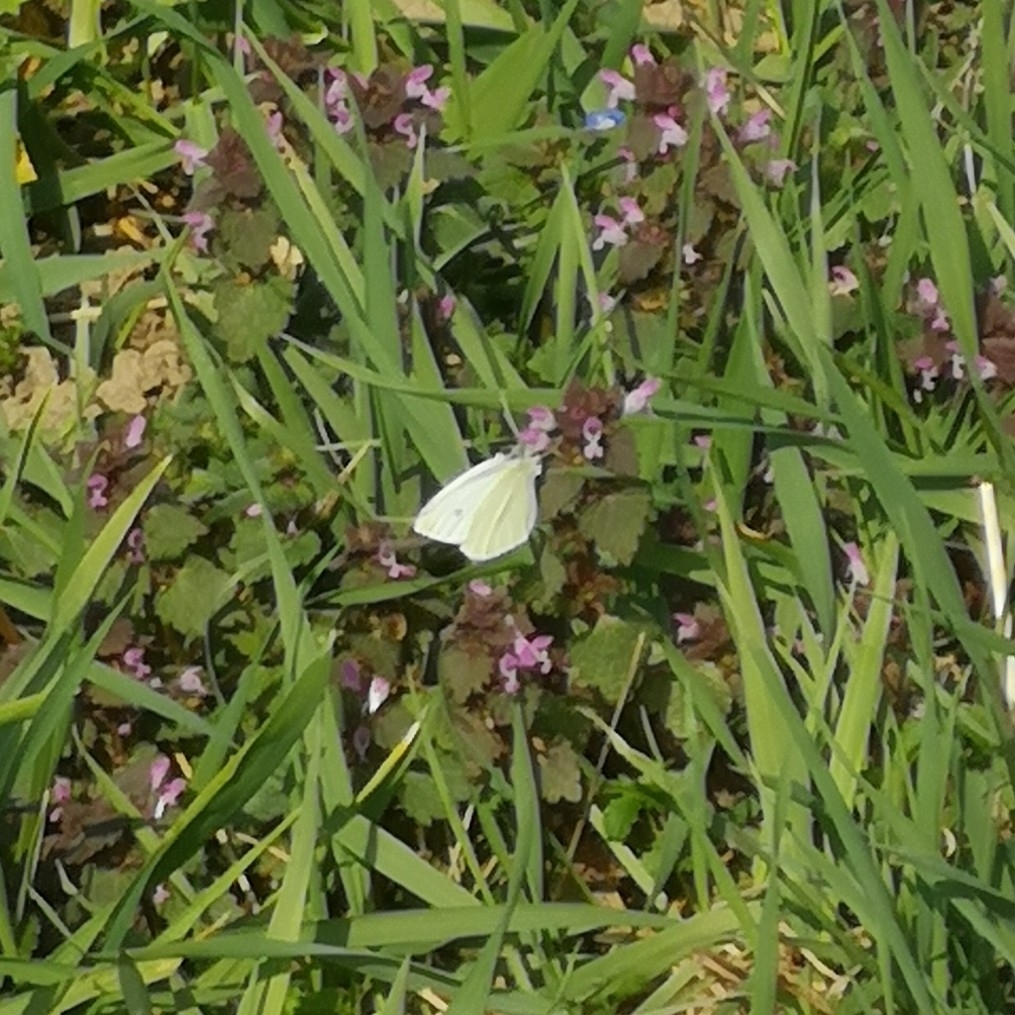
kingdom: Animalia
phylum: Arthropoda
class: Insecta
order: Lepidoptera
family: Pieridae
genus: Pieris
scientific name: Pieris rapae
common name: Small white
